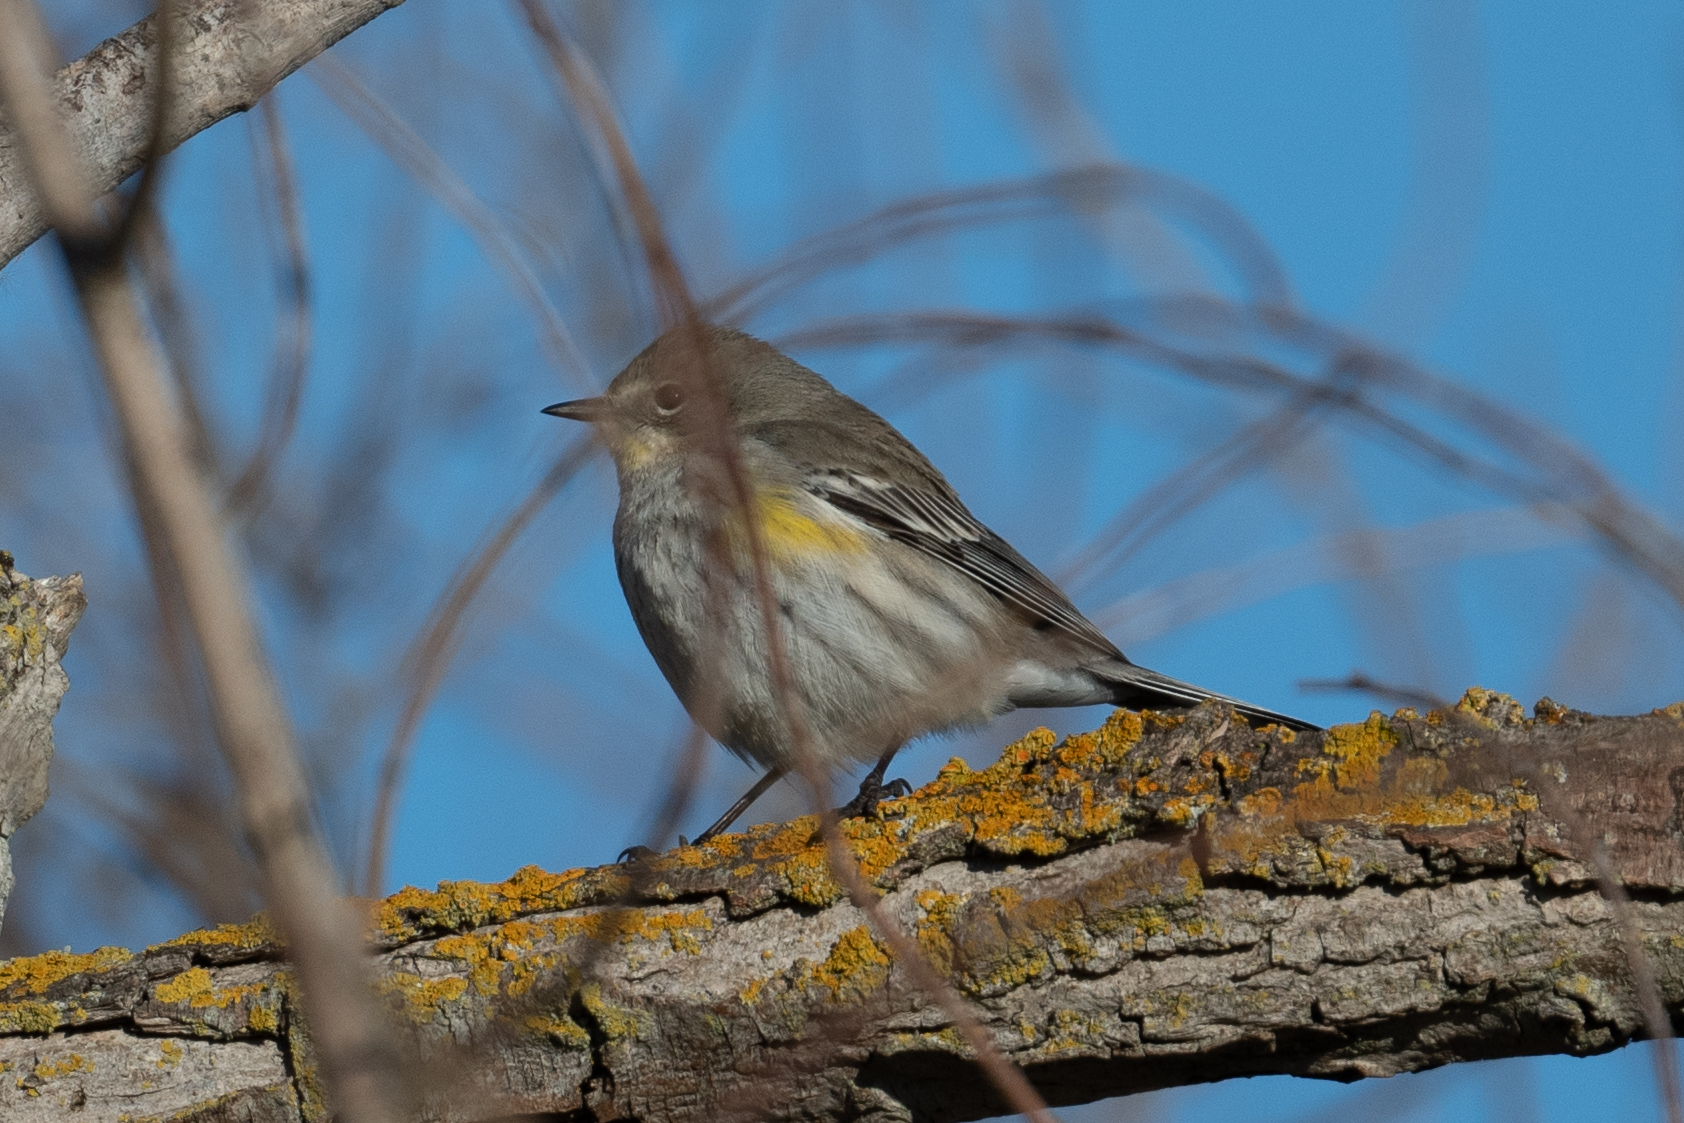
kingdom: Animalia
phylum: Chordata
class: Aves
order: Passeriformes
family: Parulidae
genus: Setophaga
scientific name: Setophaga coronata
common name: Myrtle warbler
